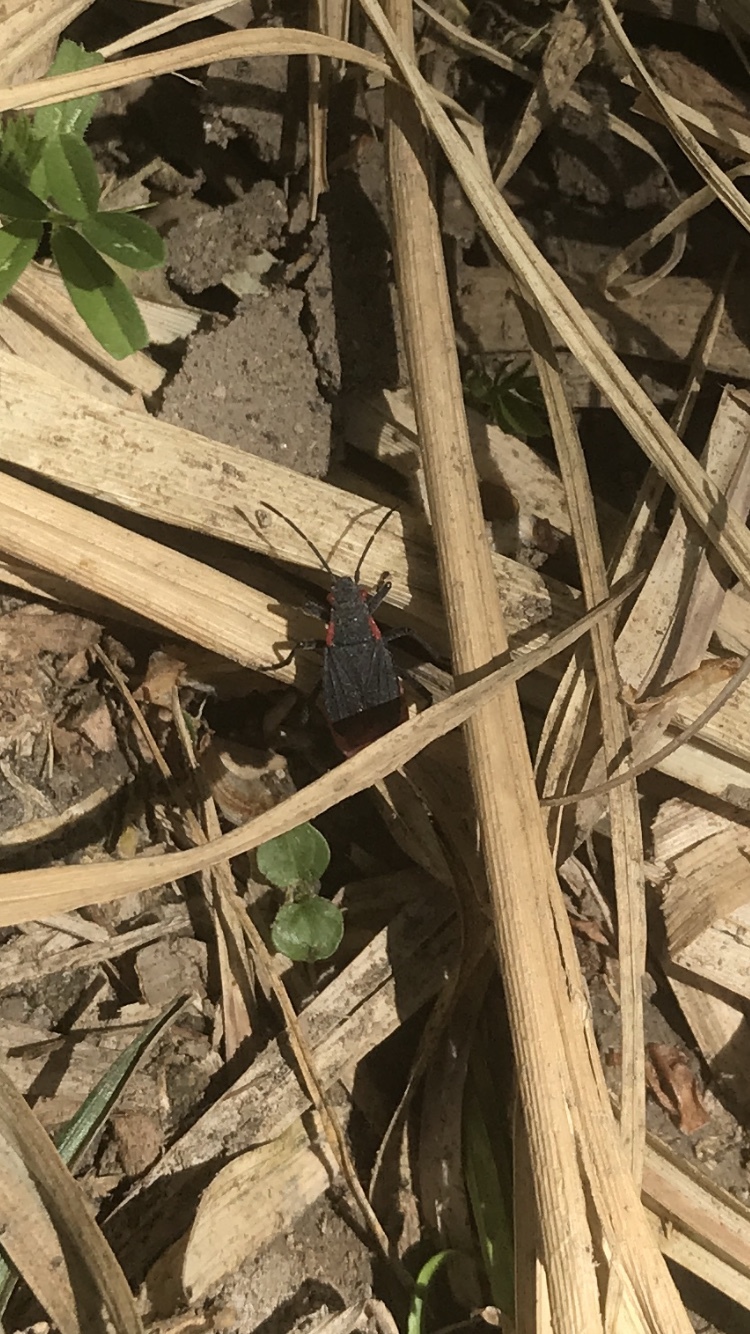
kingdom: Animalia
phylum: Arthropoda
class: Insecta
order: Hemiptera
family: Rhopalidae
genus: Jadera
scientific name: Jadera haematoloma
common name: Red-shouldered bug
